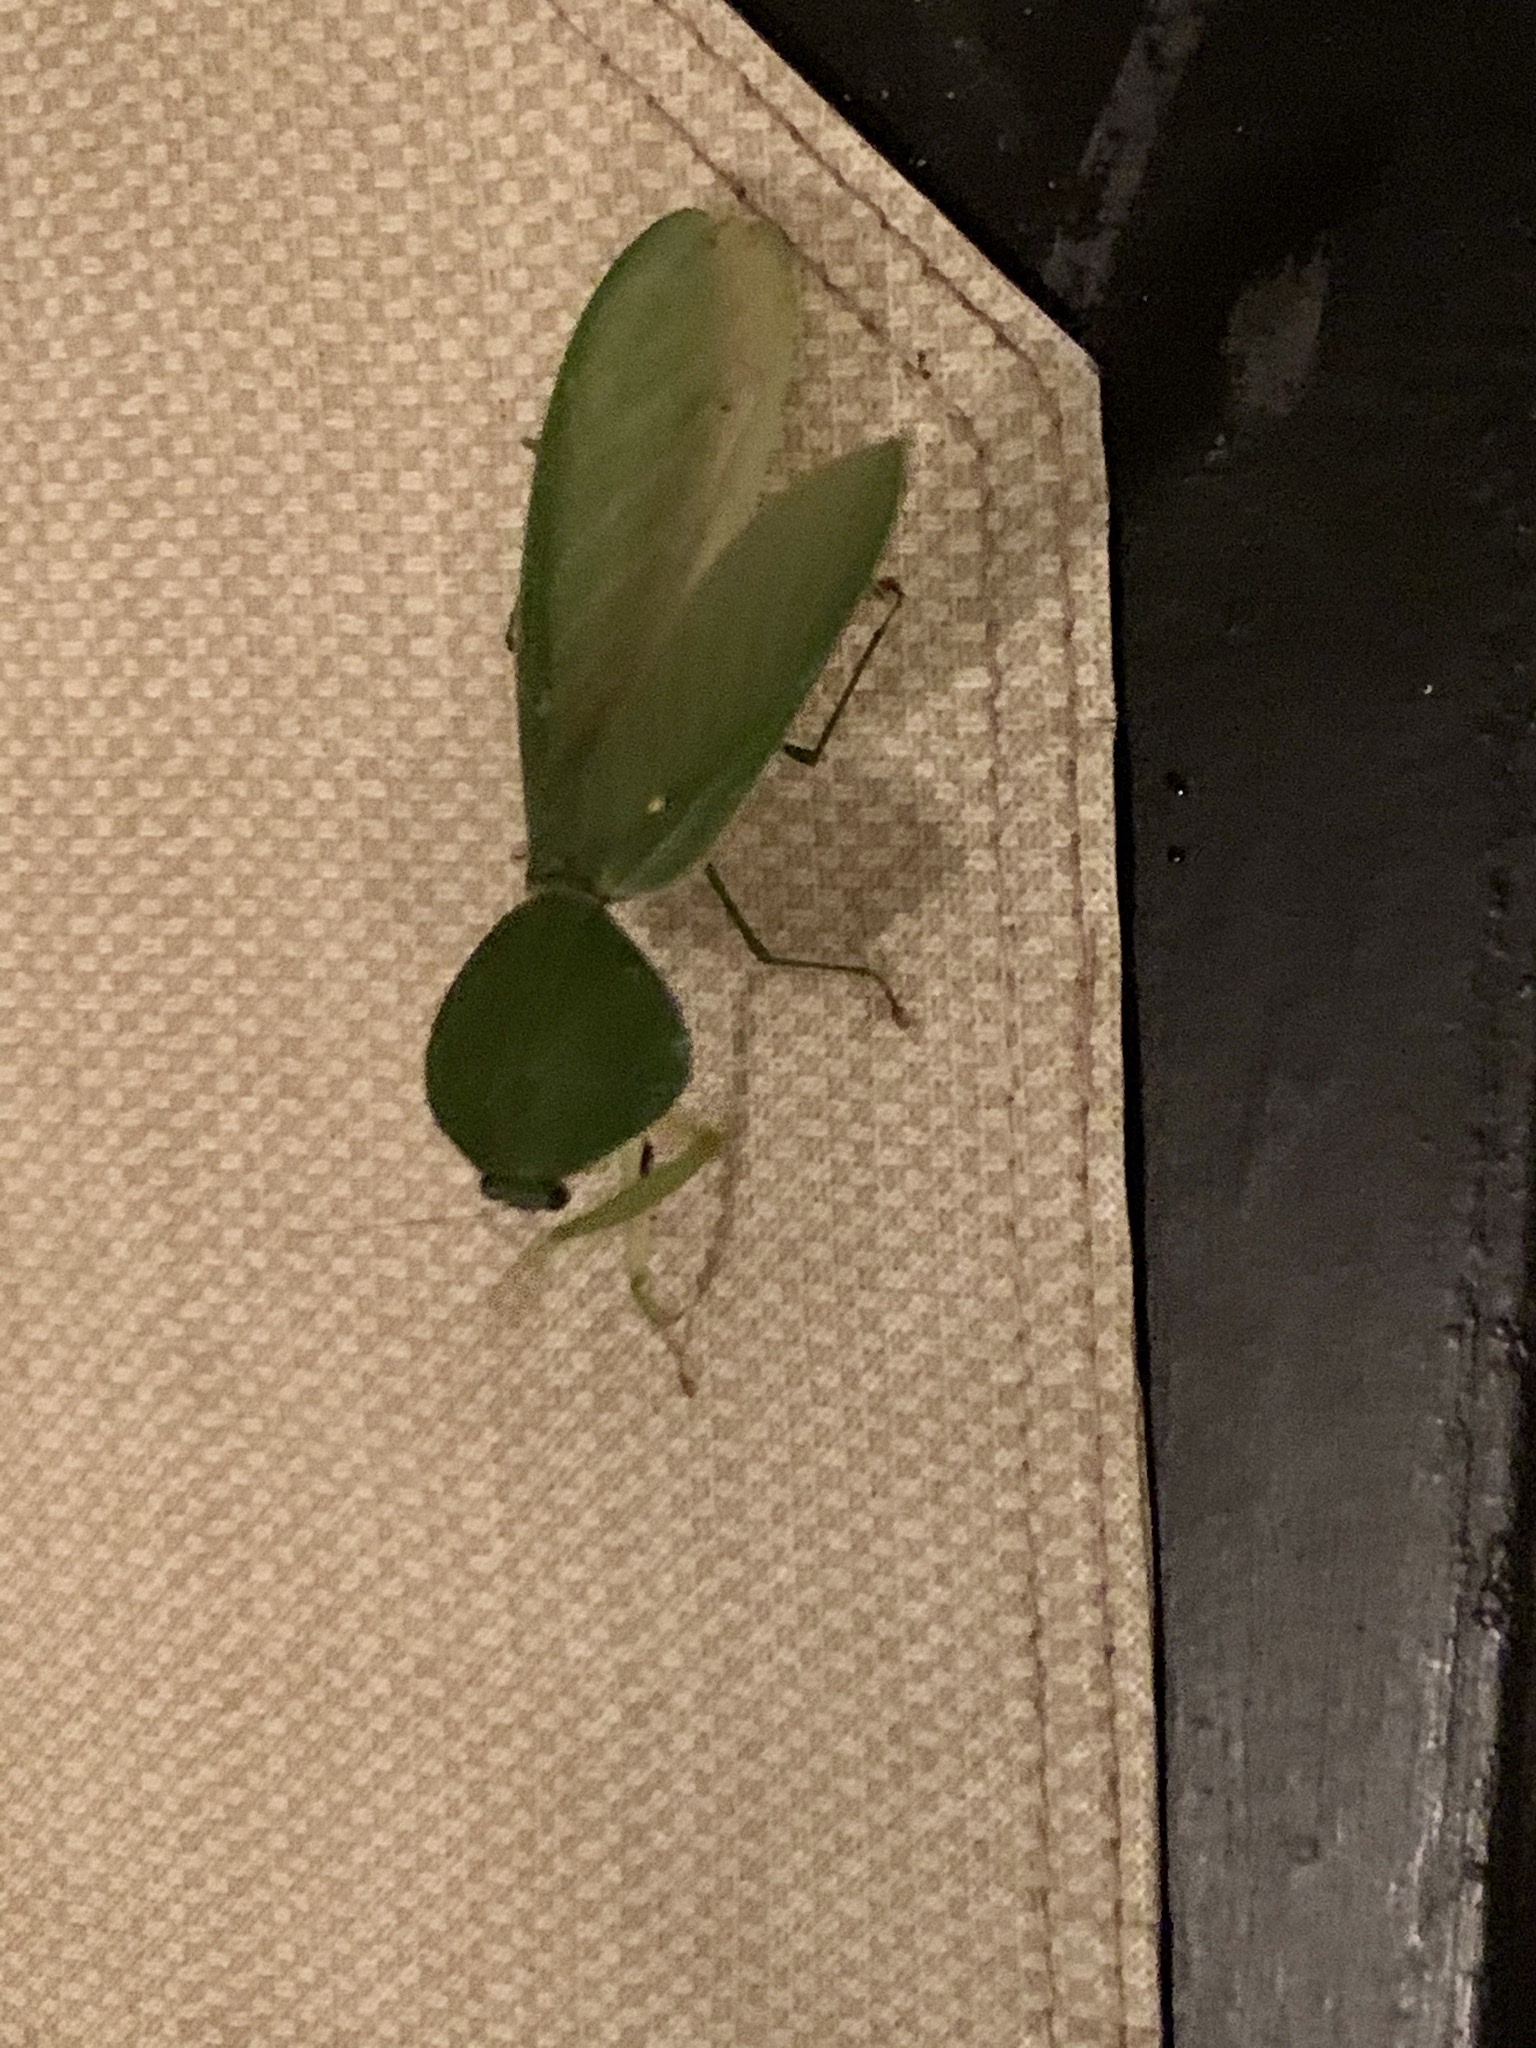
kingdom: Animalia
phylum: Arthropoda
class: Insecta
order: Mantodea
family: Mantidae
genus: Choeradodis
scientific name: Choeradodis rhombicollis
